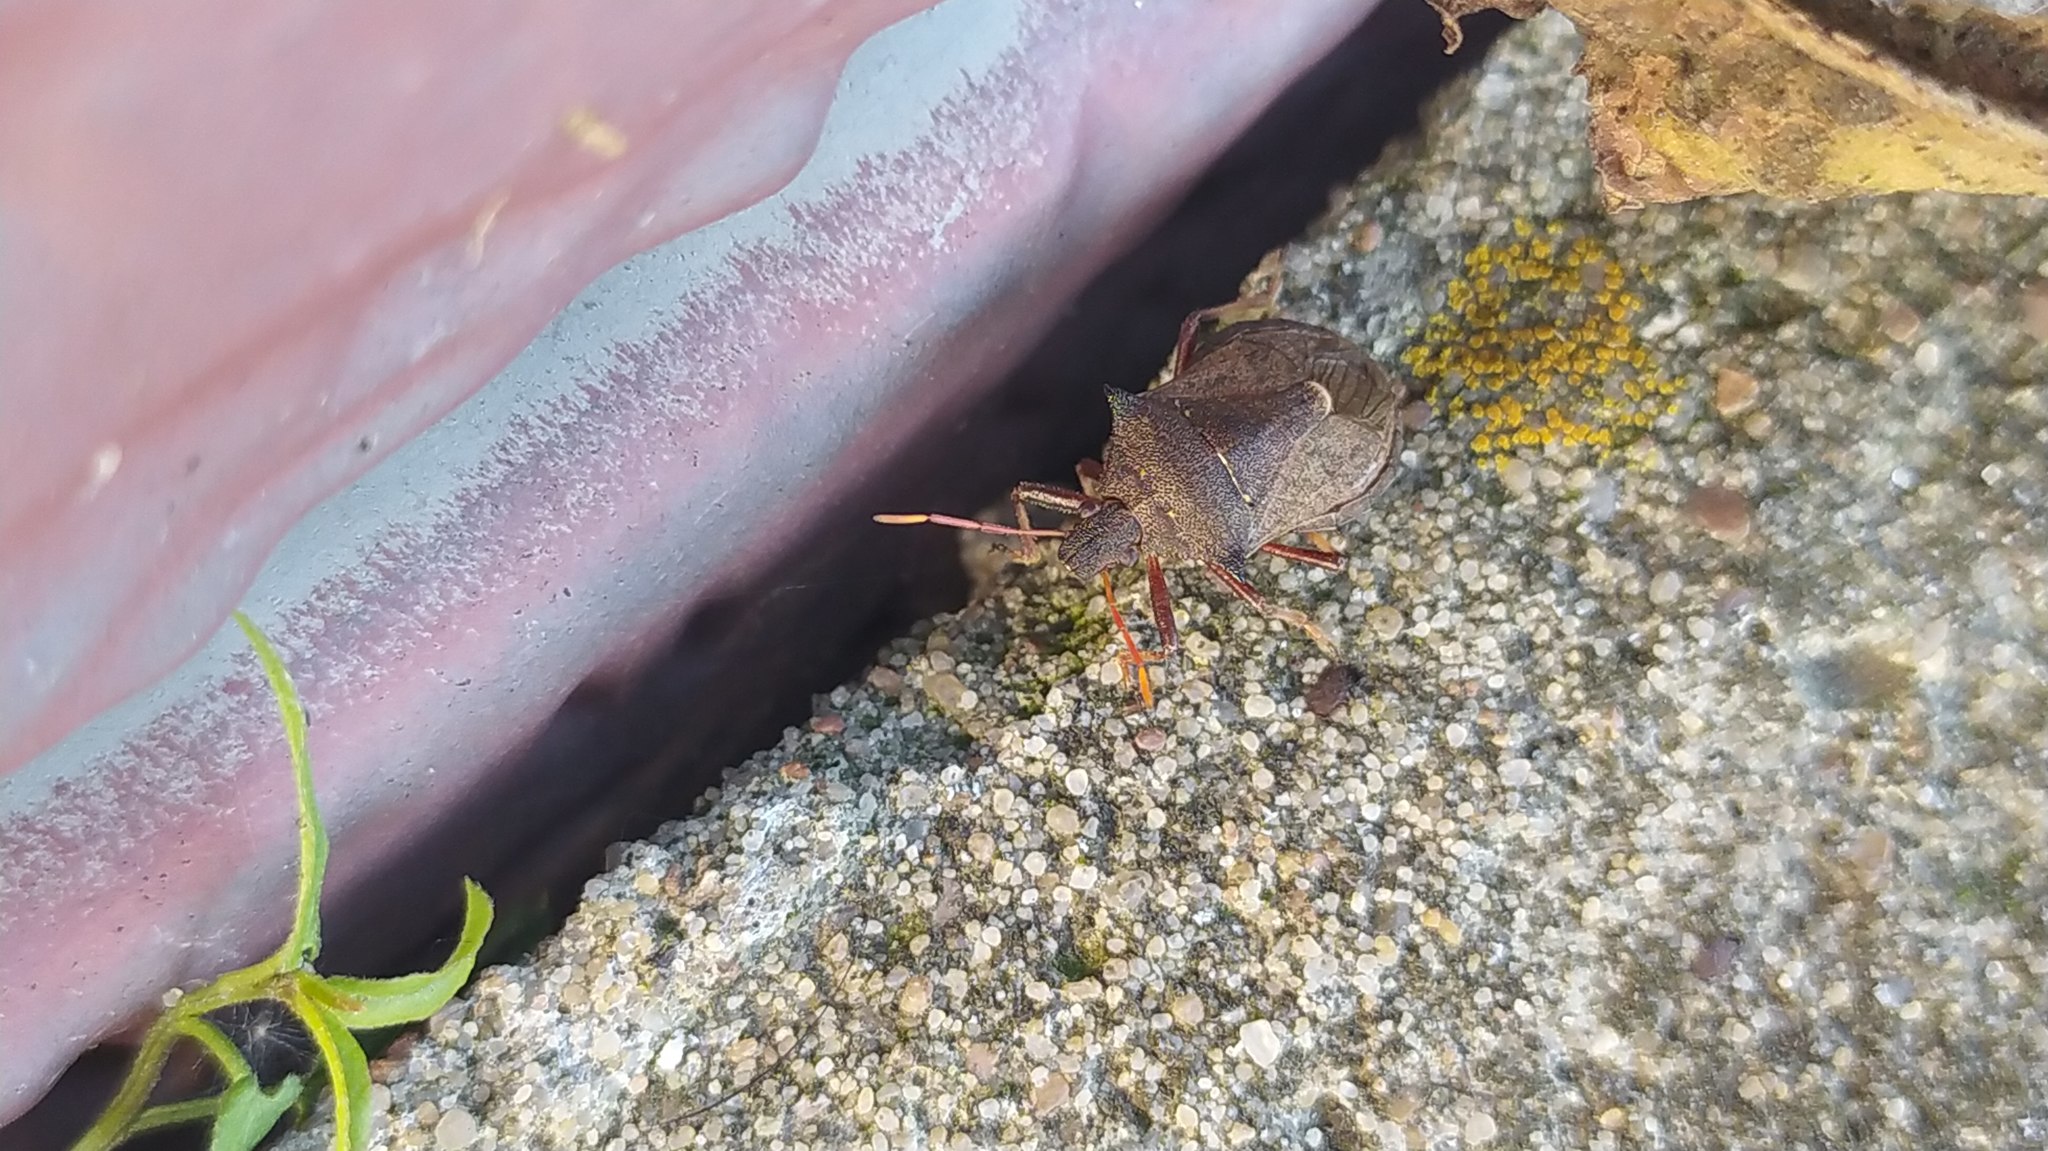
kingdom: Animalia
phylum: Arthropoda
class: Insecta
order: Hemiptera
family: Pentatomidae
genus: Picromerus
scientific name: Picromerus bidens
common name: Spiked shieldbug
